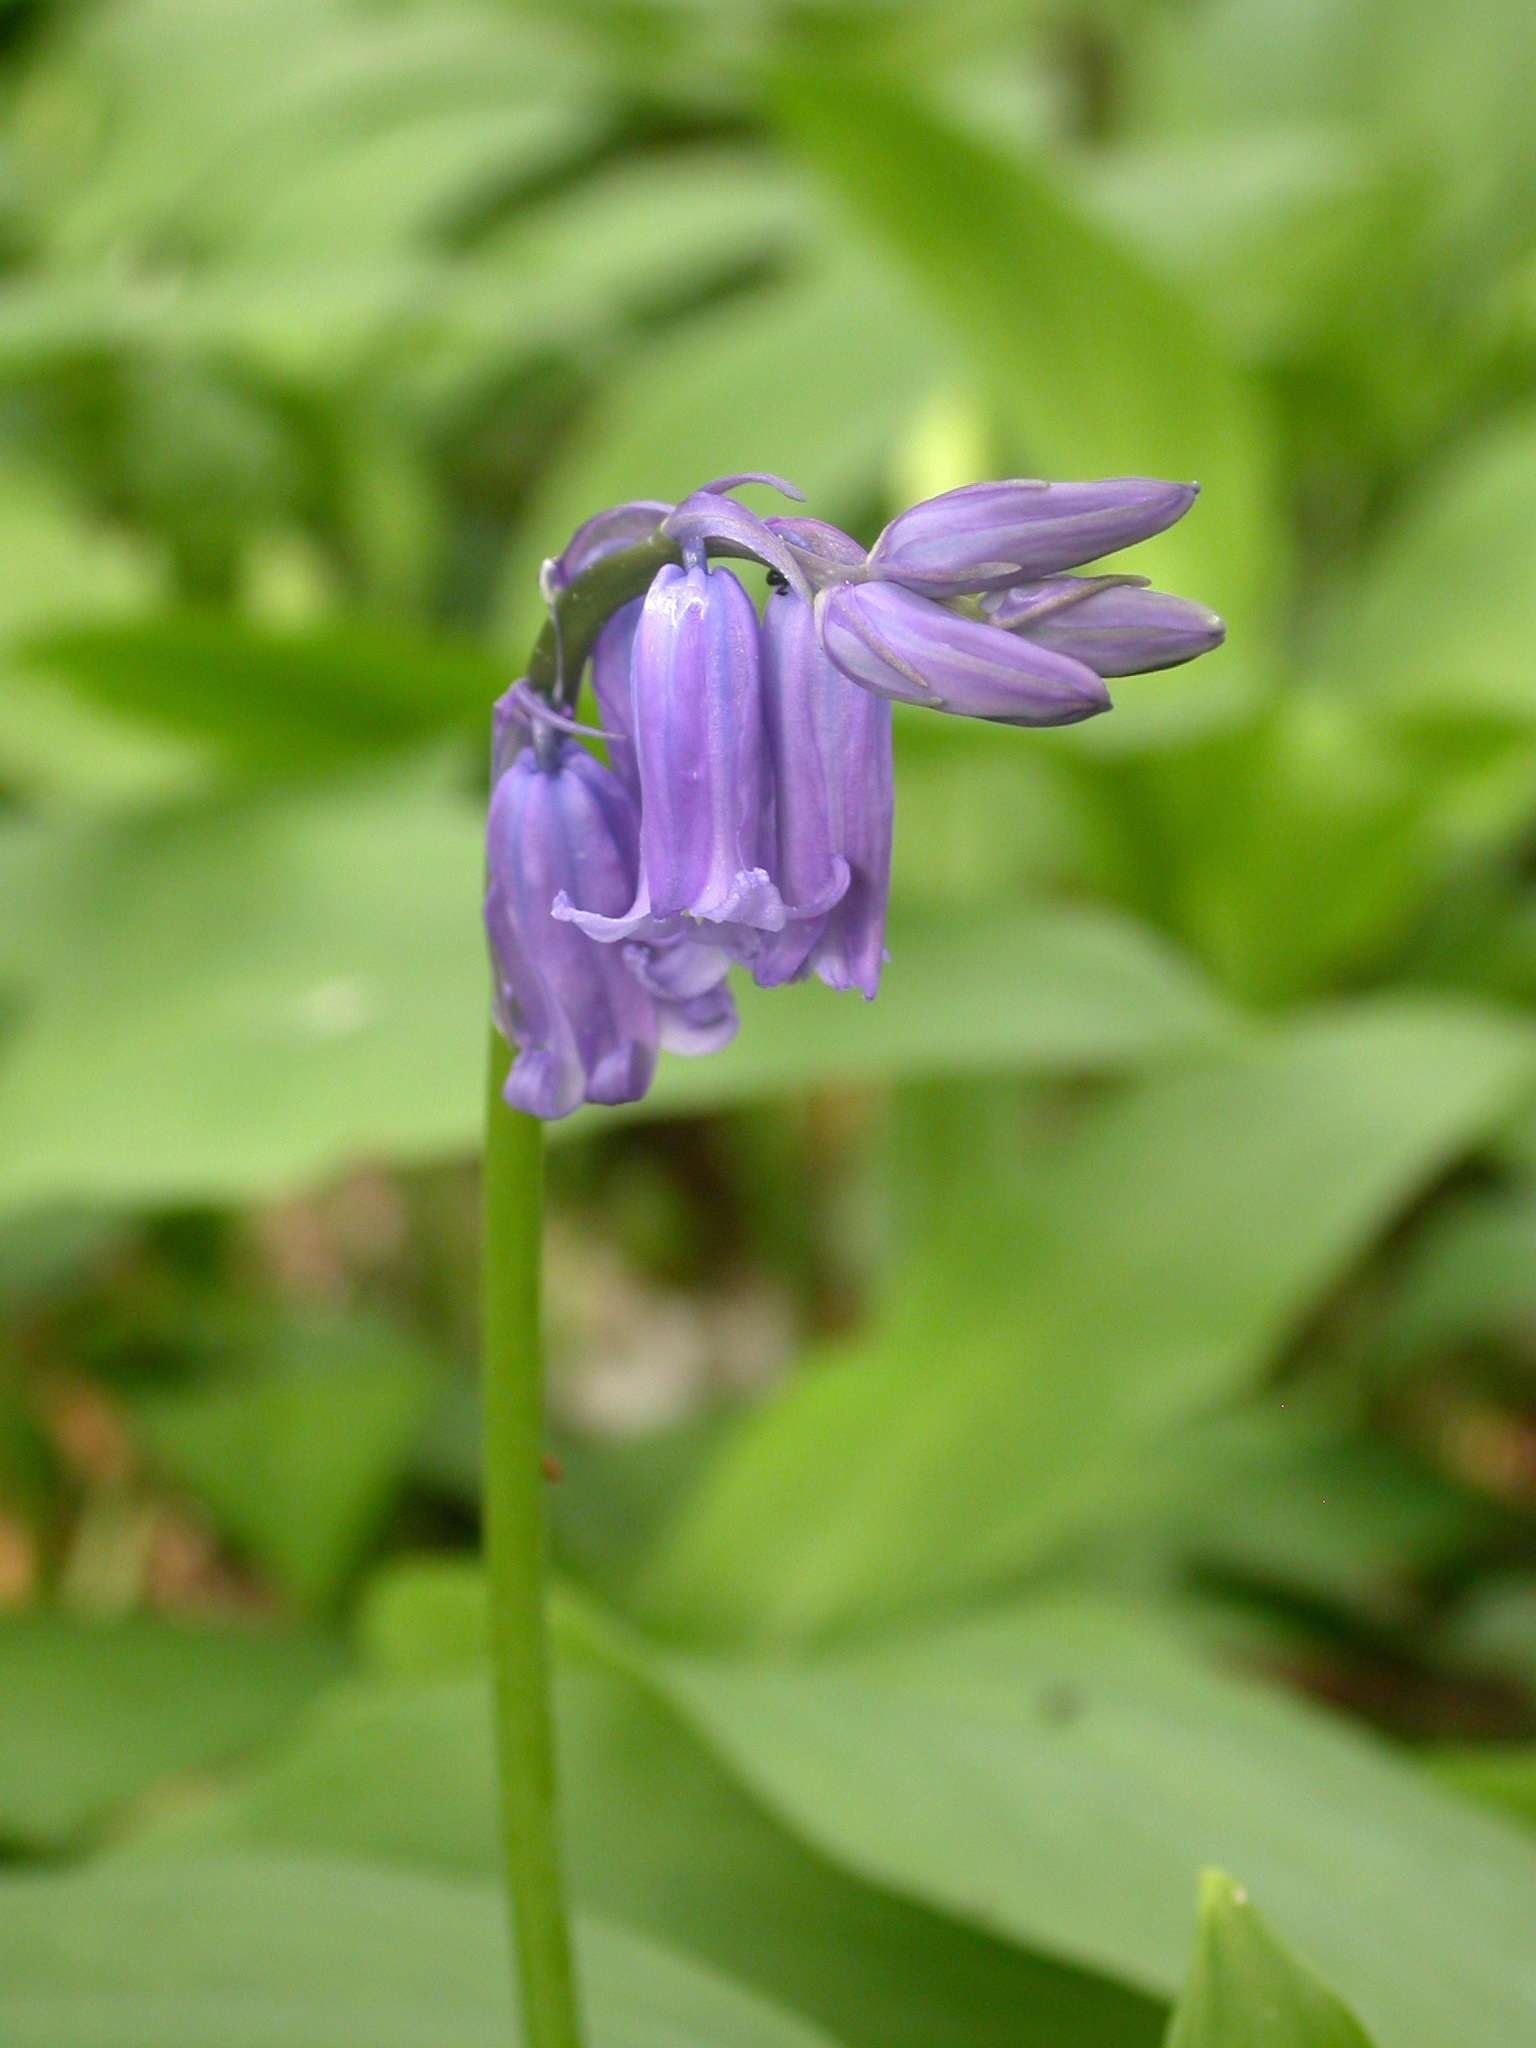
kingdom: Plantae
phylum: Tracheophyta
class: Liliopsida
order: Asparagales
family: Asparagaceae
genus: Hyacinthoides
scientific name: Hyacinthoides non-scripta
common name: Bluebell
